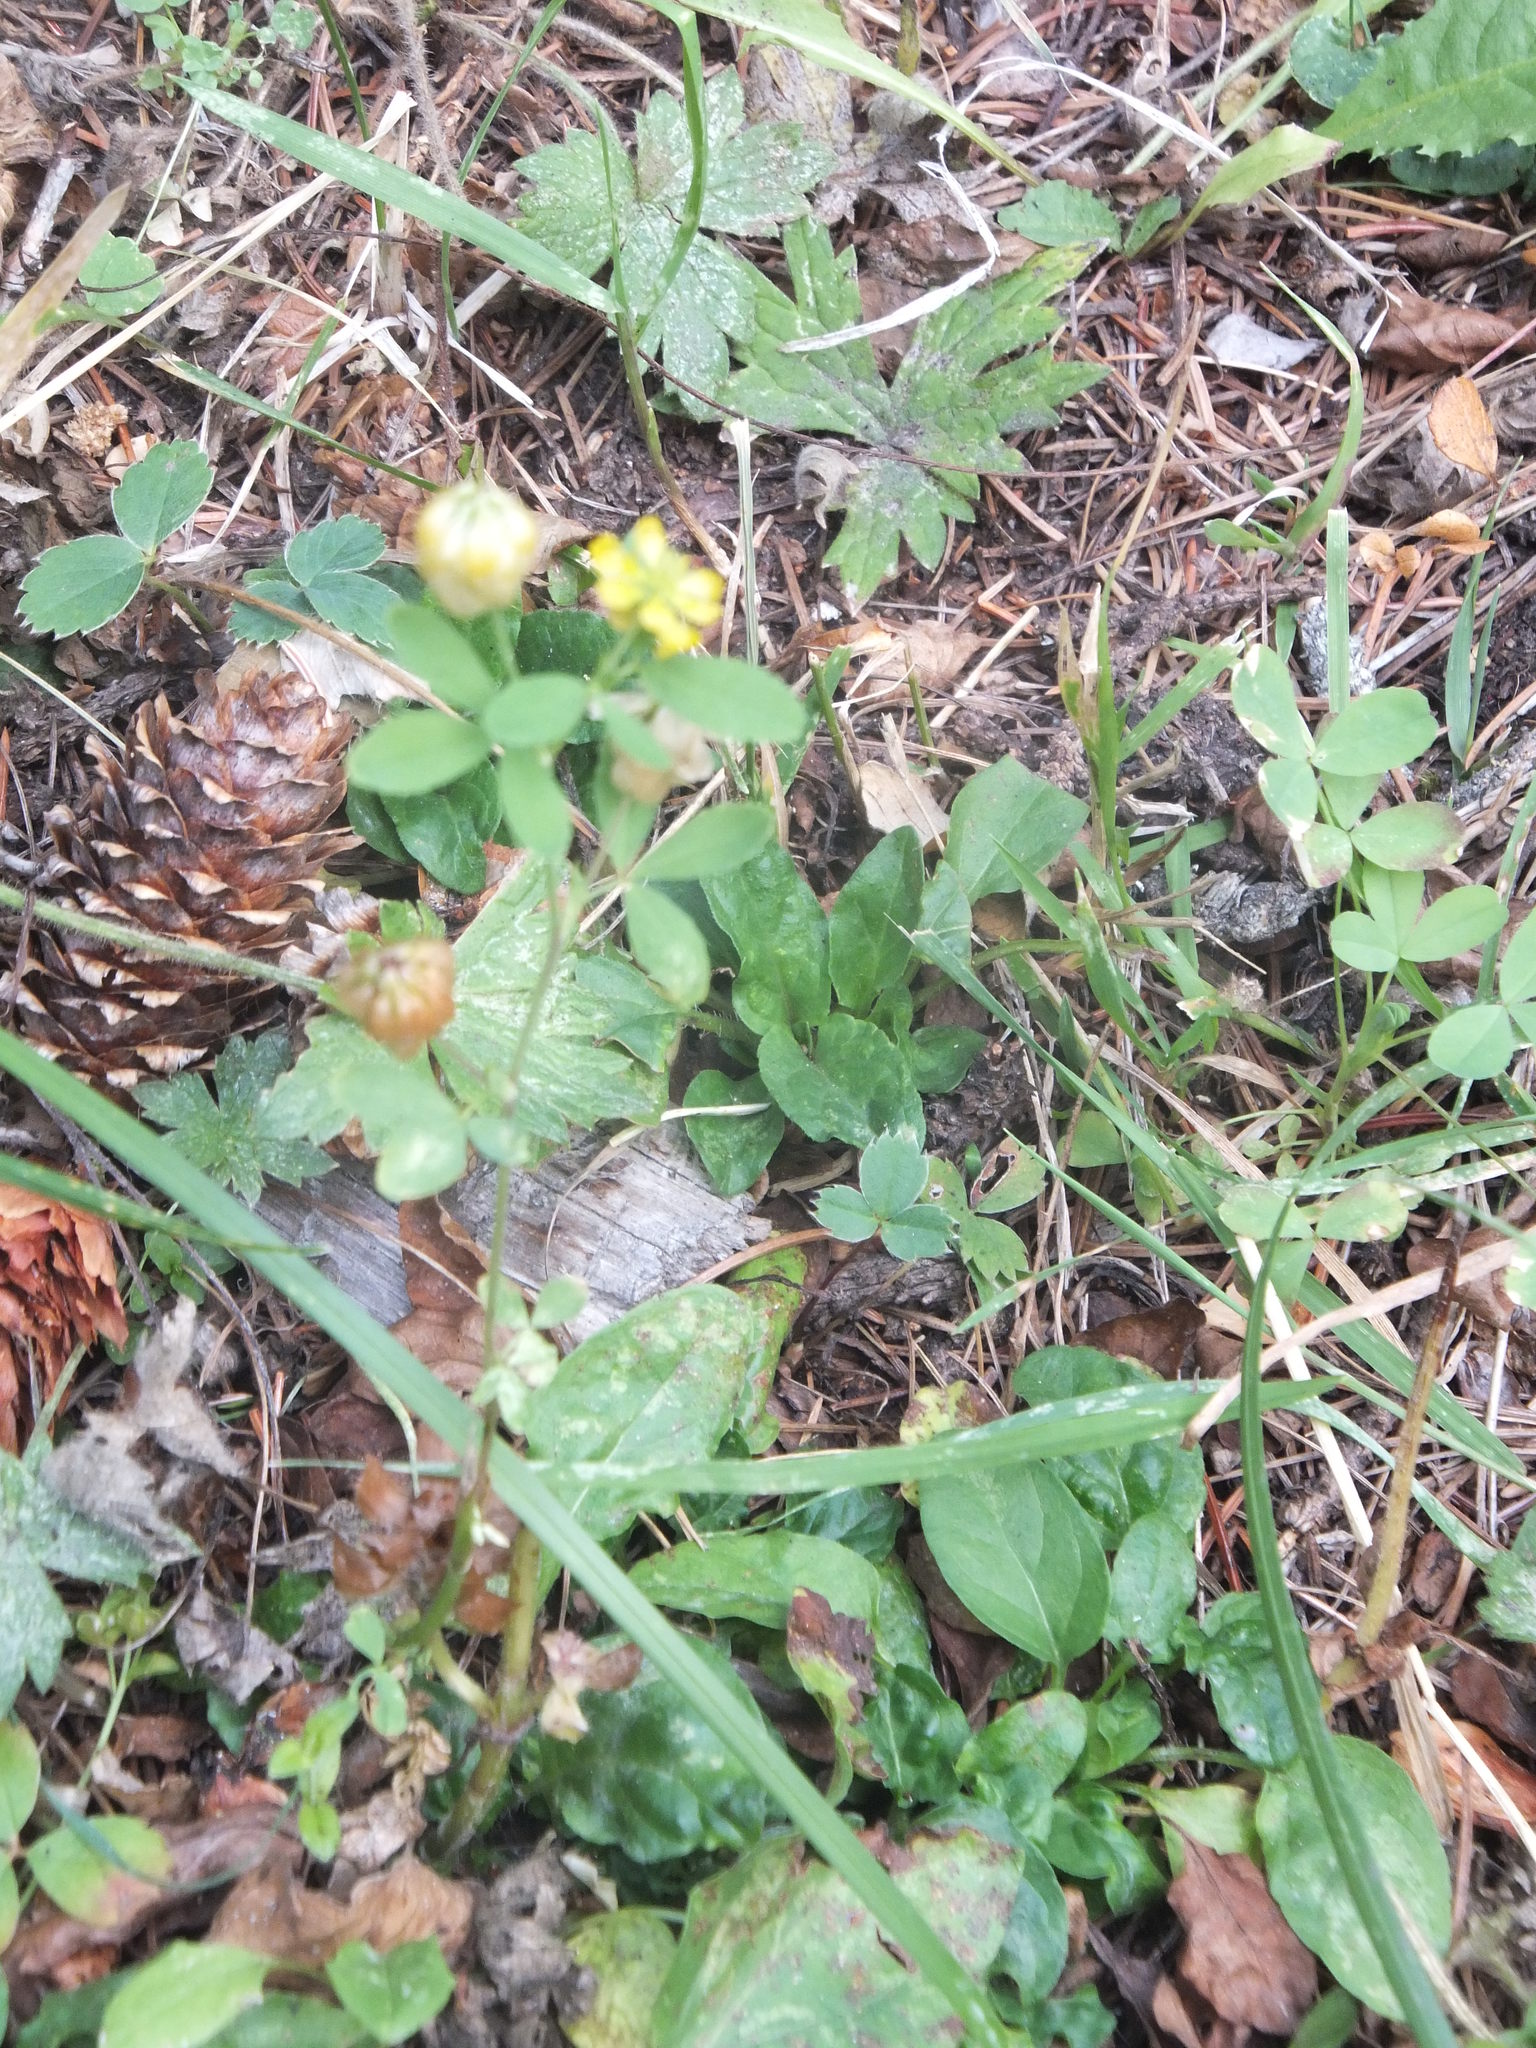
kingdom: Plantae
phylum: Tracheophyta
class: Magnoliopsida
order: Fabales
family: Fabaceae
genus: Trifolium
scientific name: Trifolium aureum
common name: Golden clover
